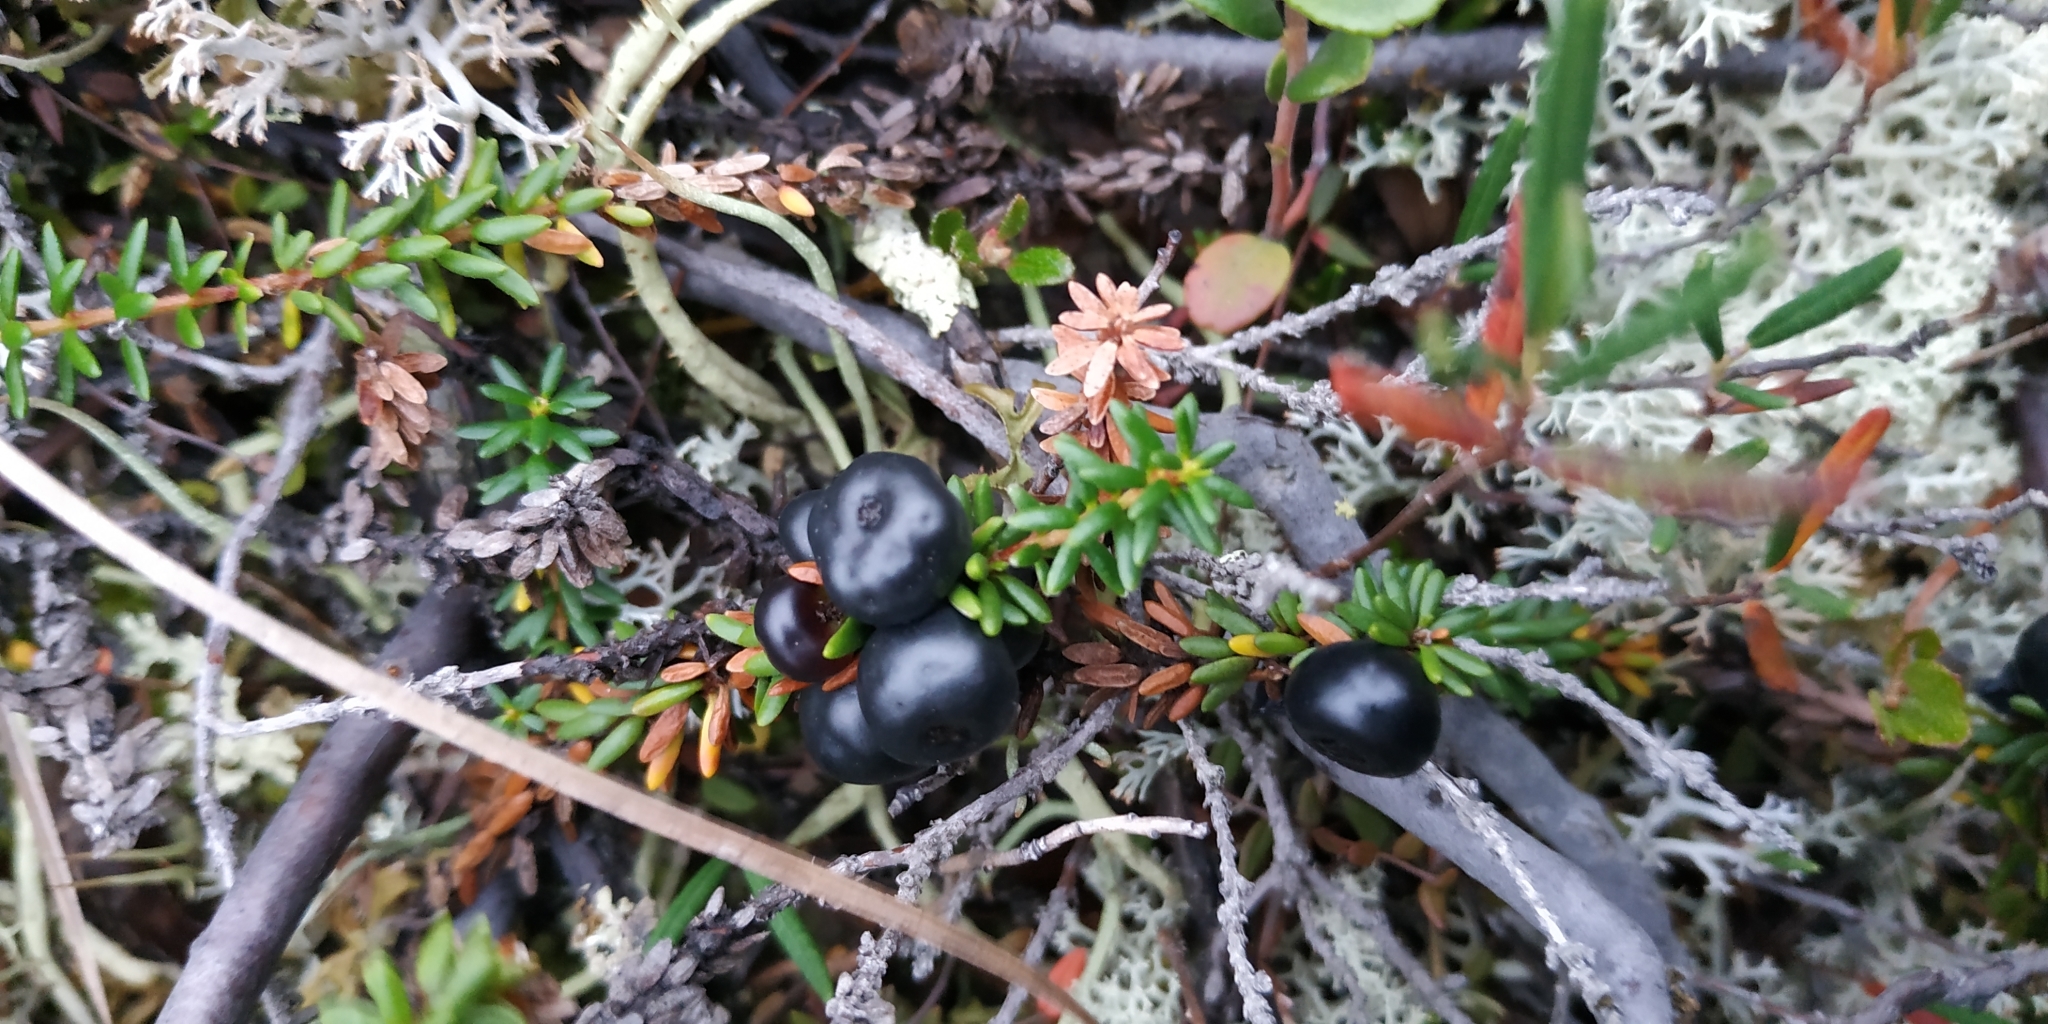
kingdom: Plantae
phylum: Tracheophyta
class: Magnoliopsida
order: Ericales
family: Ericaceae
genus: Empetrum
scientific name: Empetrum nigrum
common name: Black crowberry
